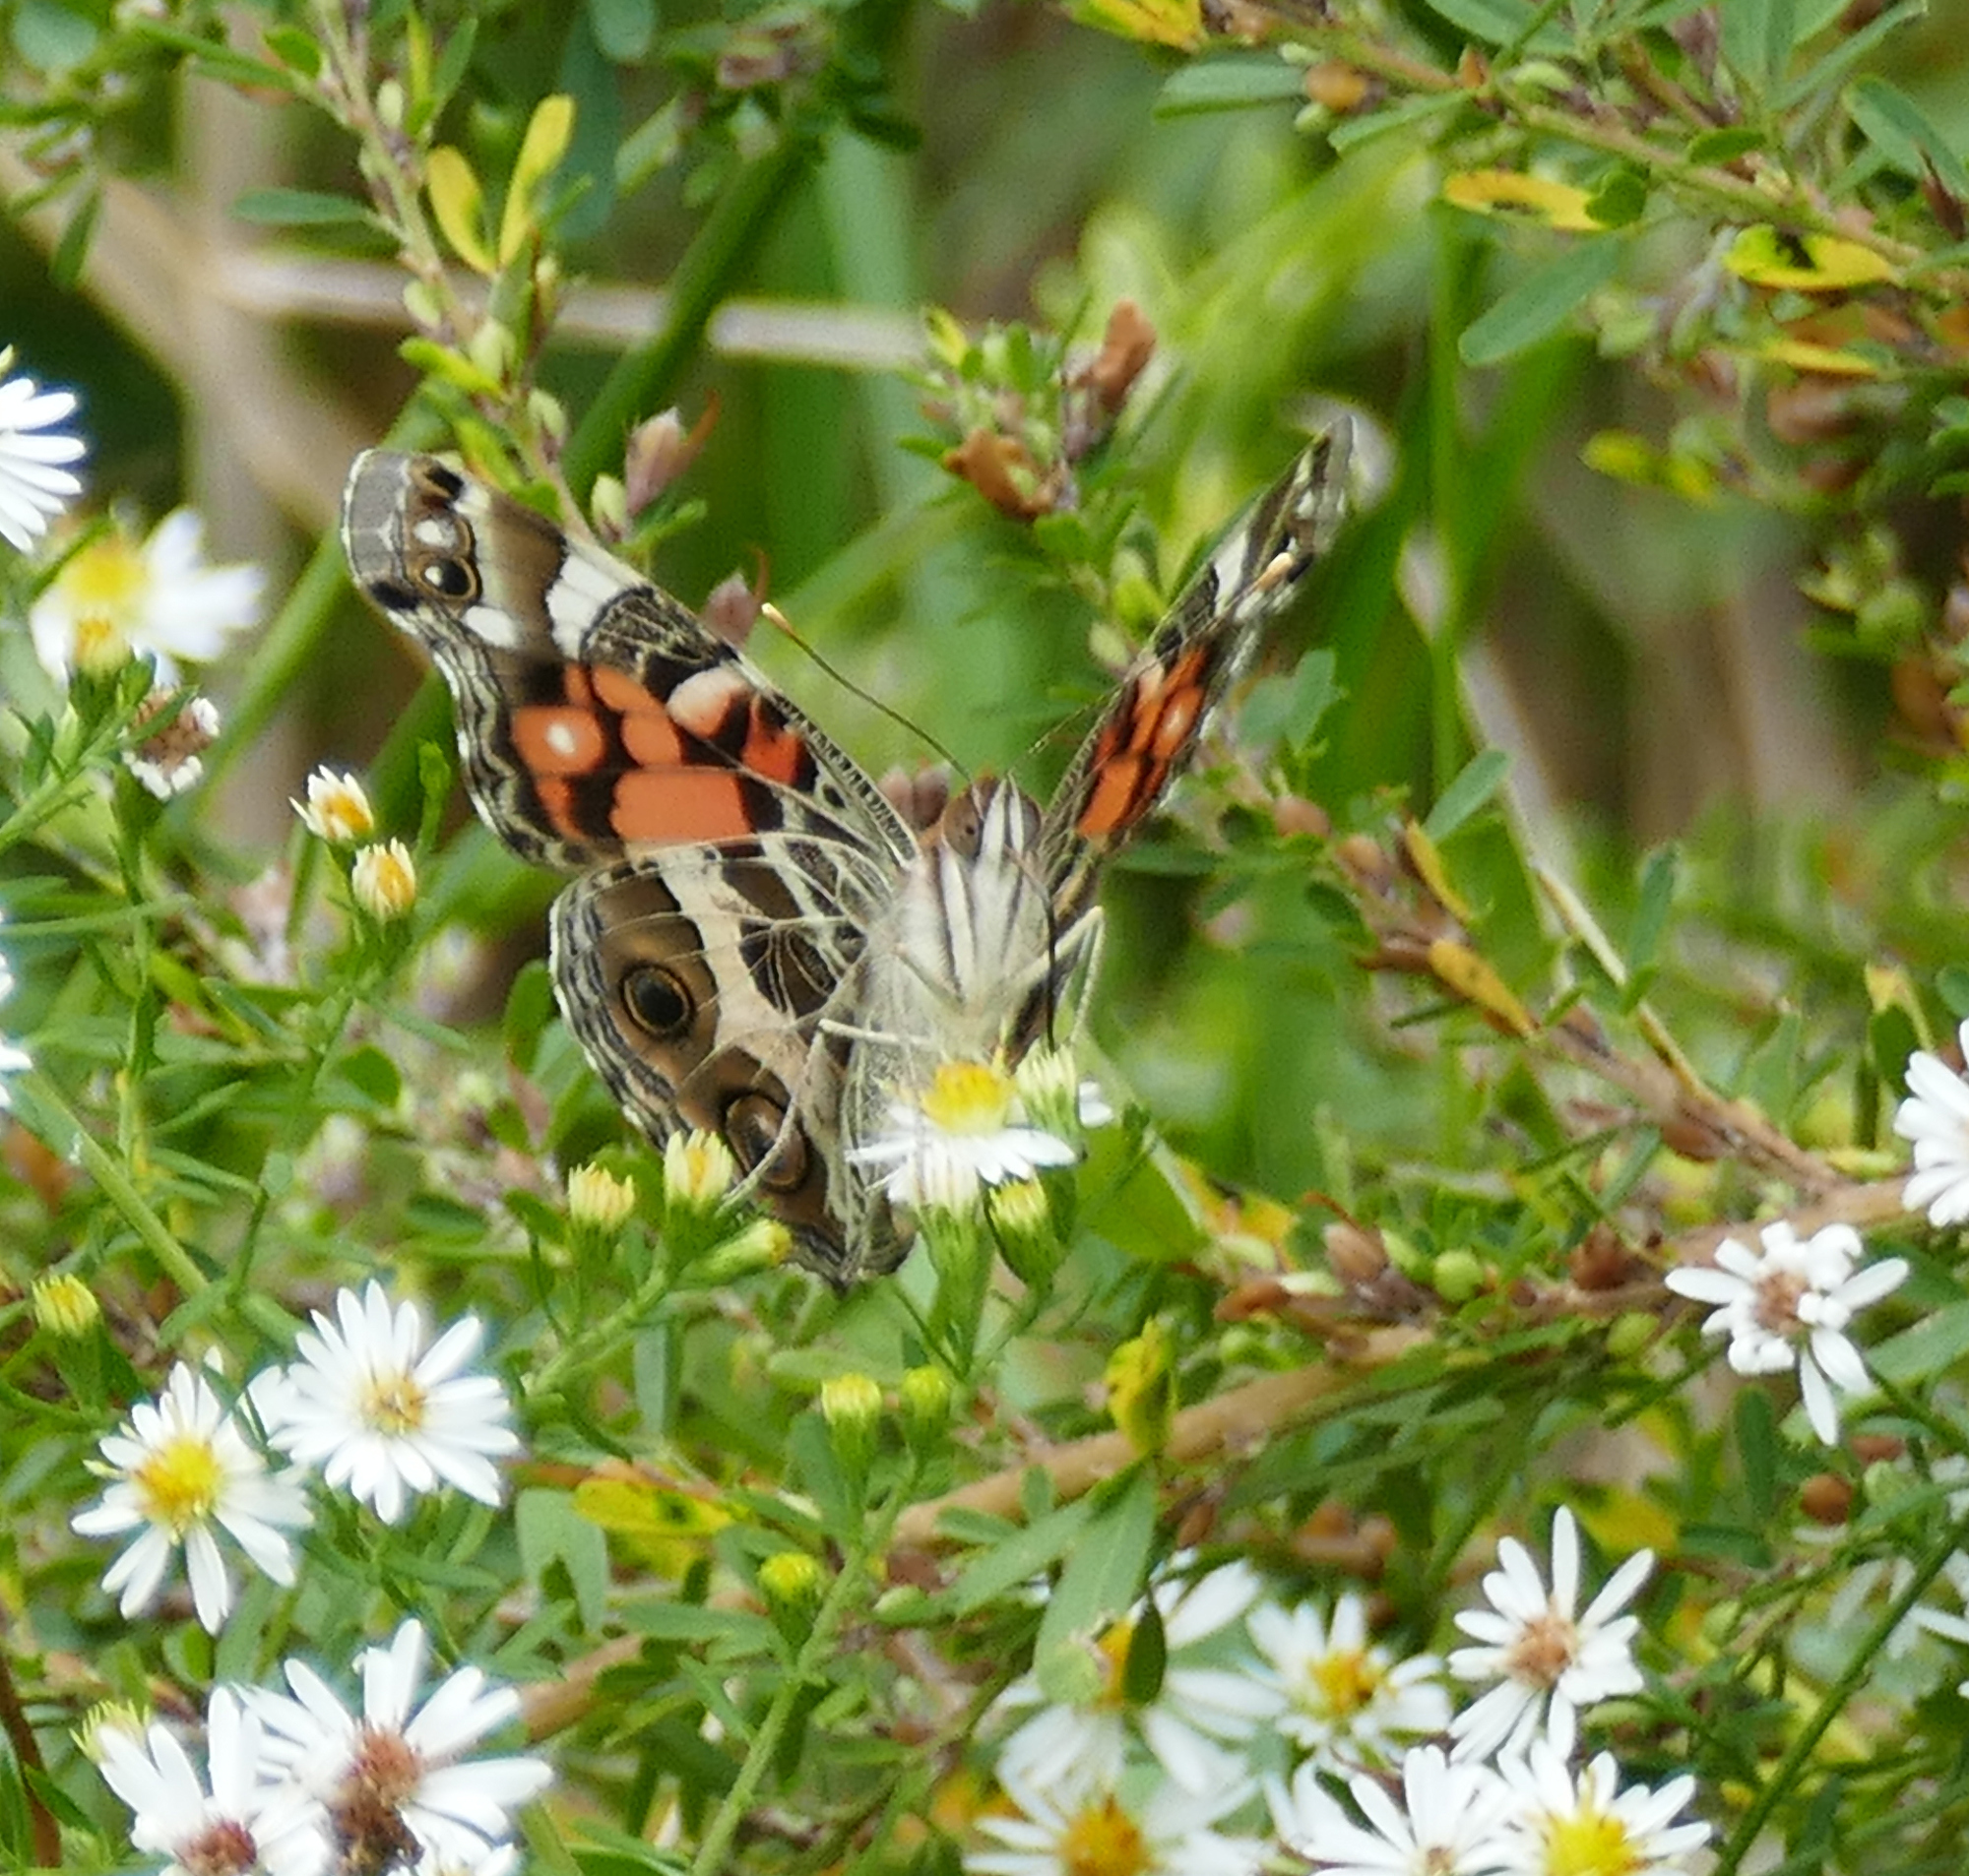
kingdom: Animalia
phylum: Arthropoda
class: Insecta
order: Lepidoptera
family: Nymphalidae
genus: Vanessa
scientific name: Vanessa virginiensis
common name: American lady
